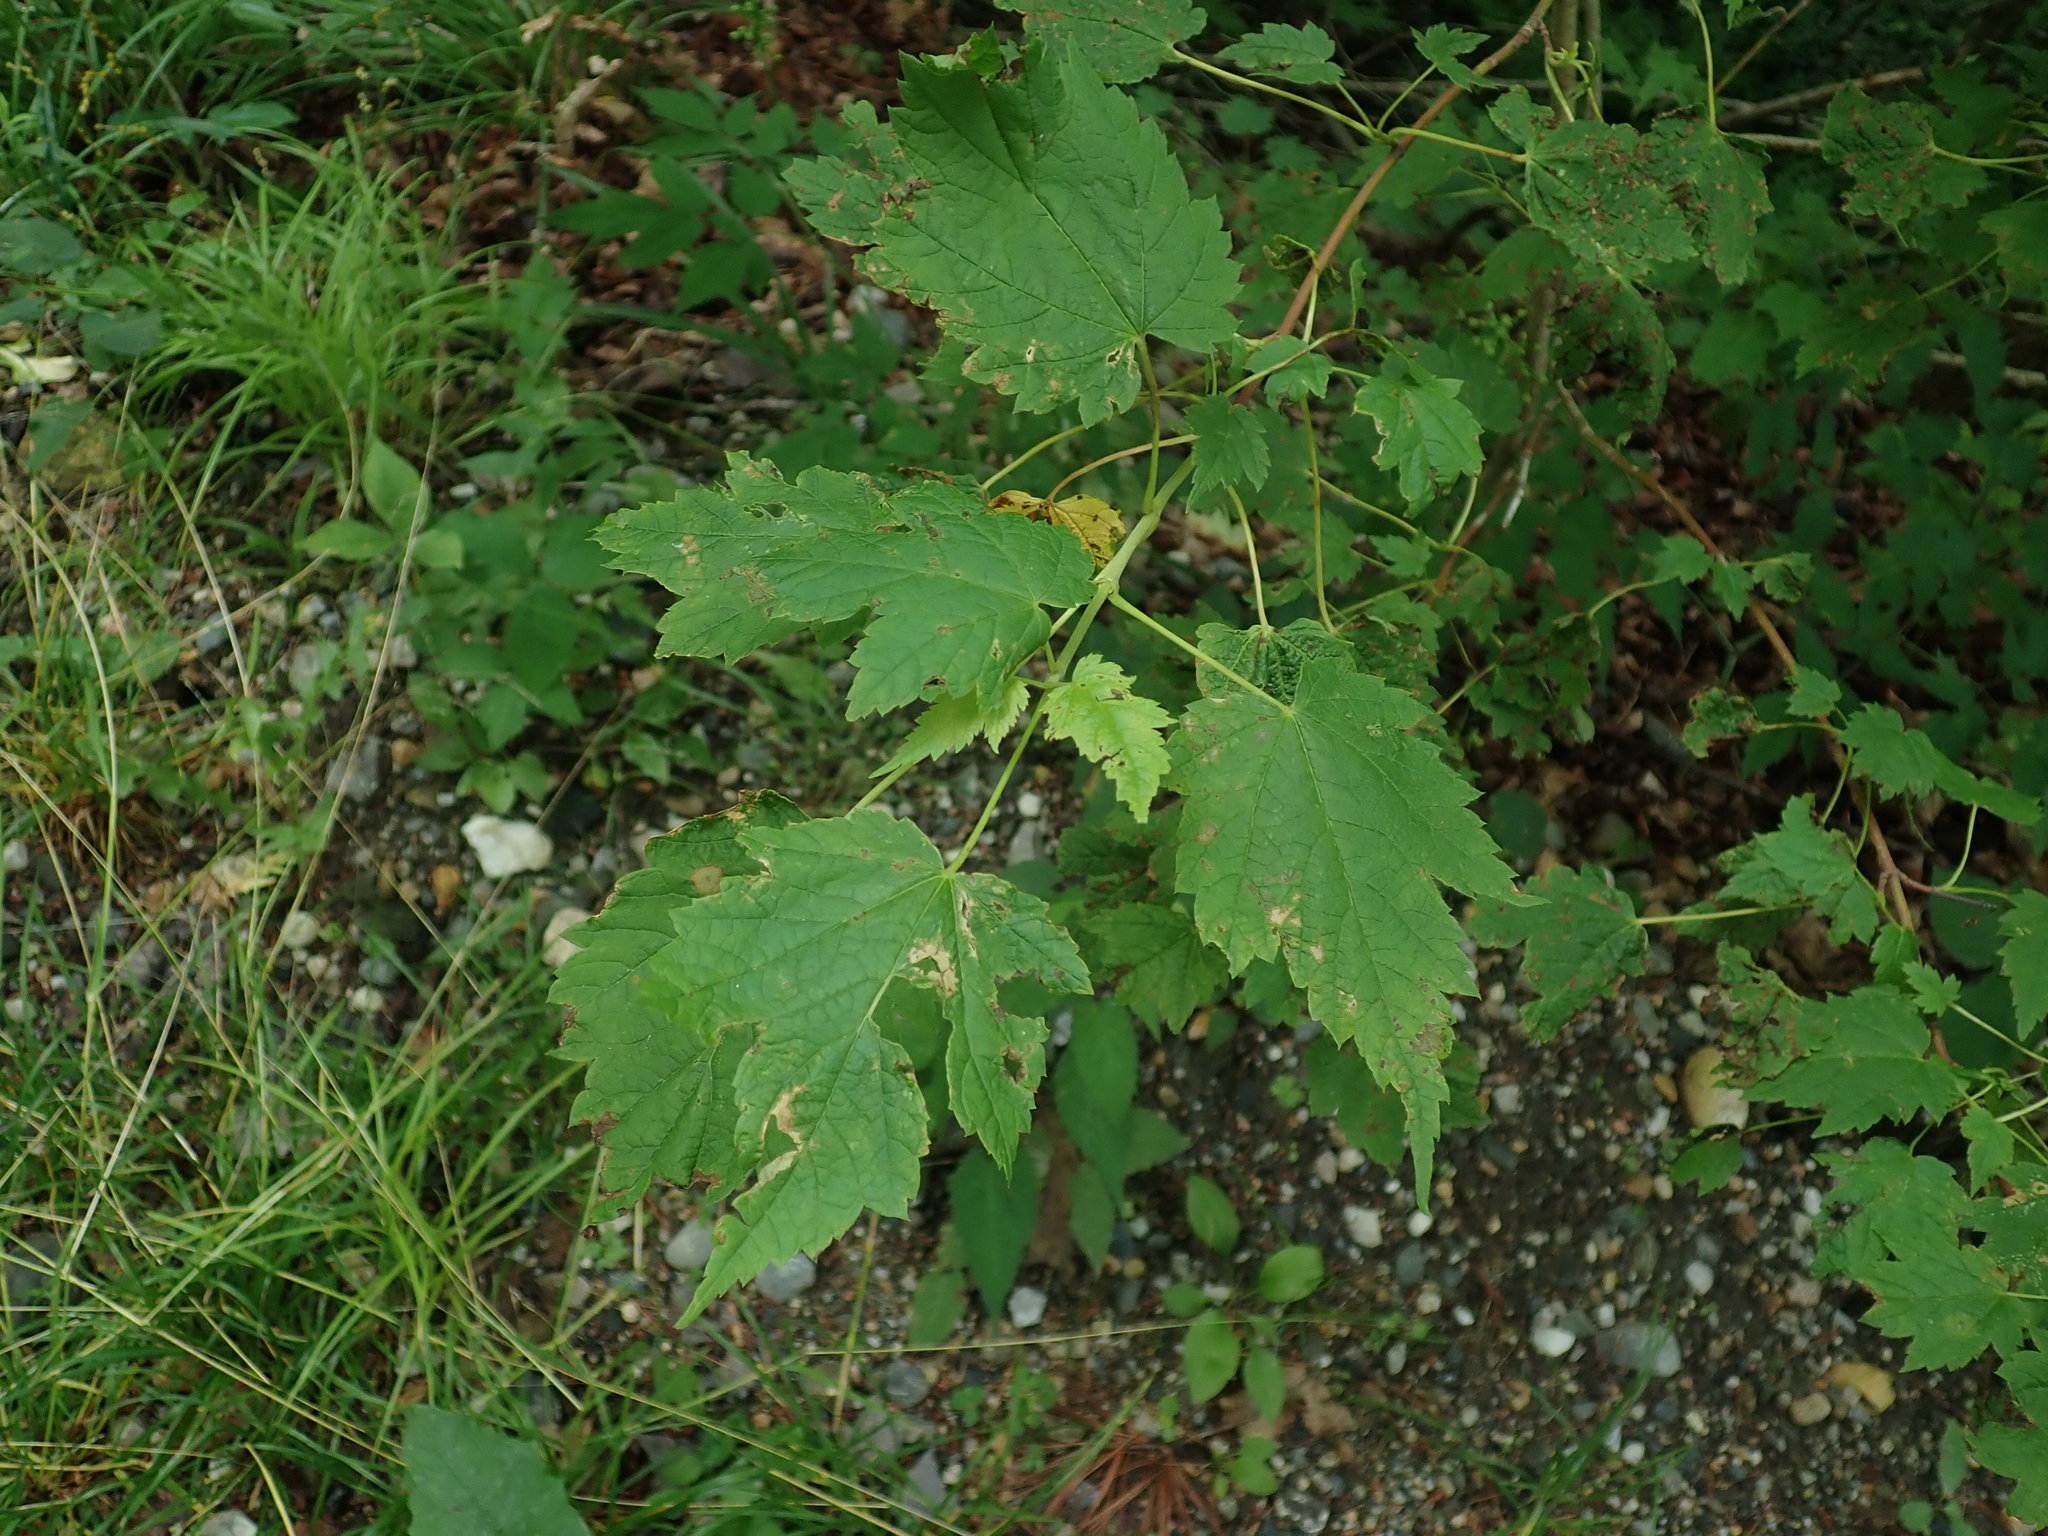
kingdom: Plantae
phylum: Tracheophyta
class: Magnoliopsida
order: Sapindales
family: Sapindaceae
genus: Acer
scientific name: Acer spicatum
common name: Mountain maple
